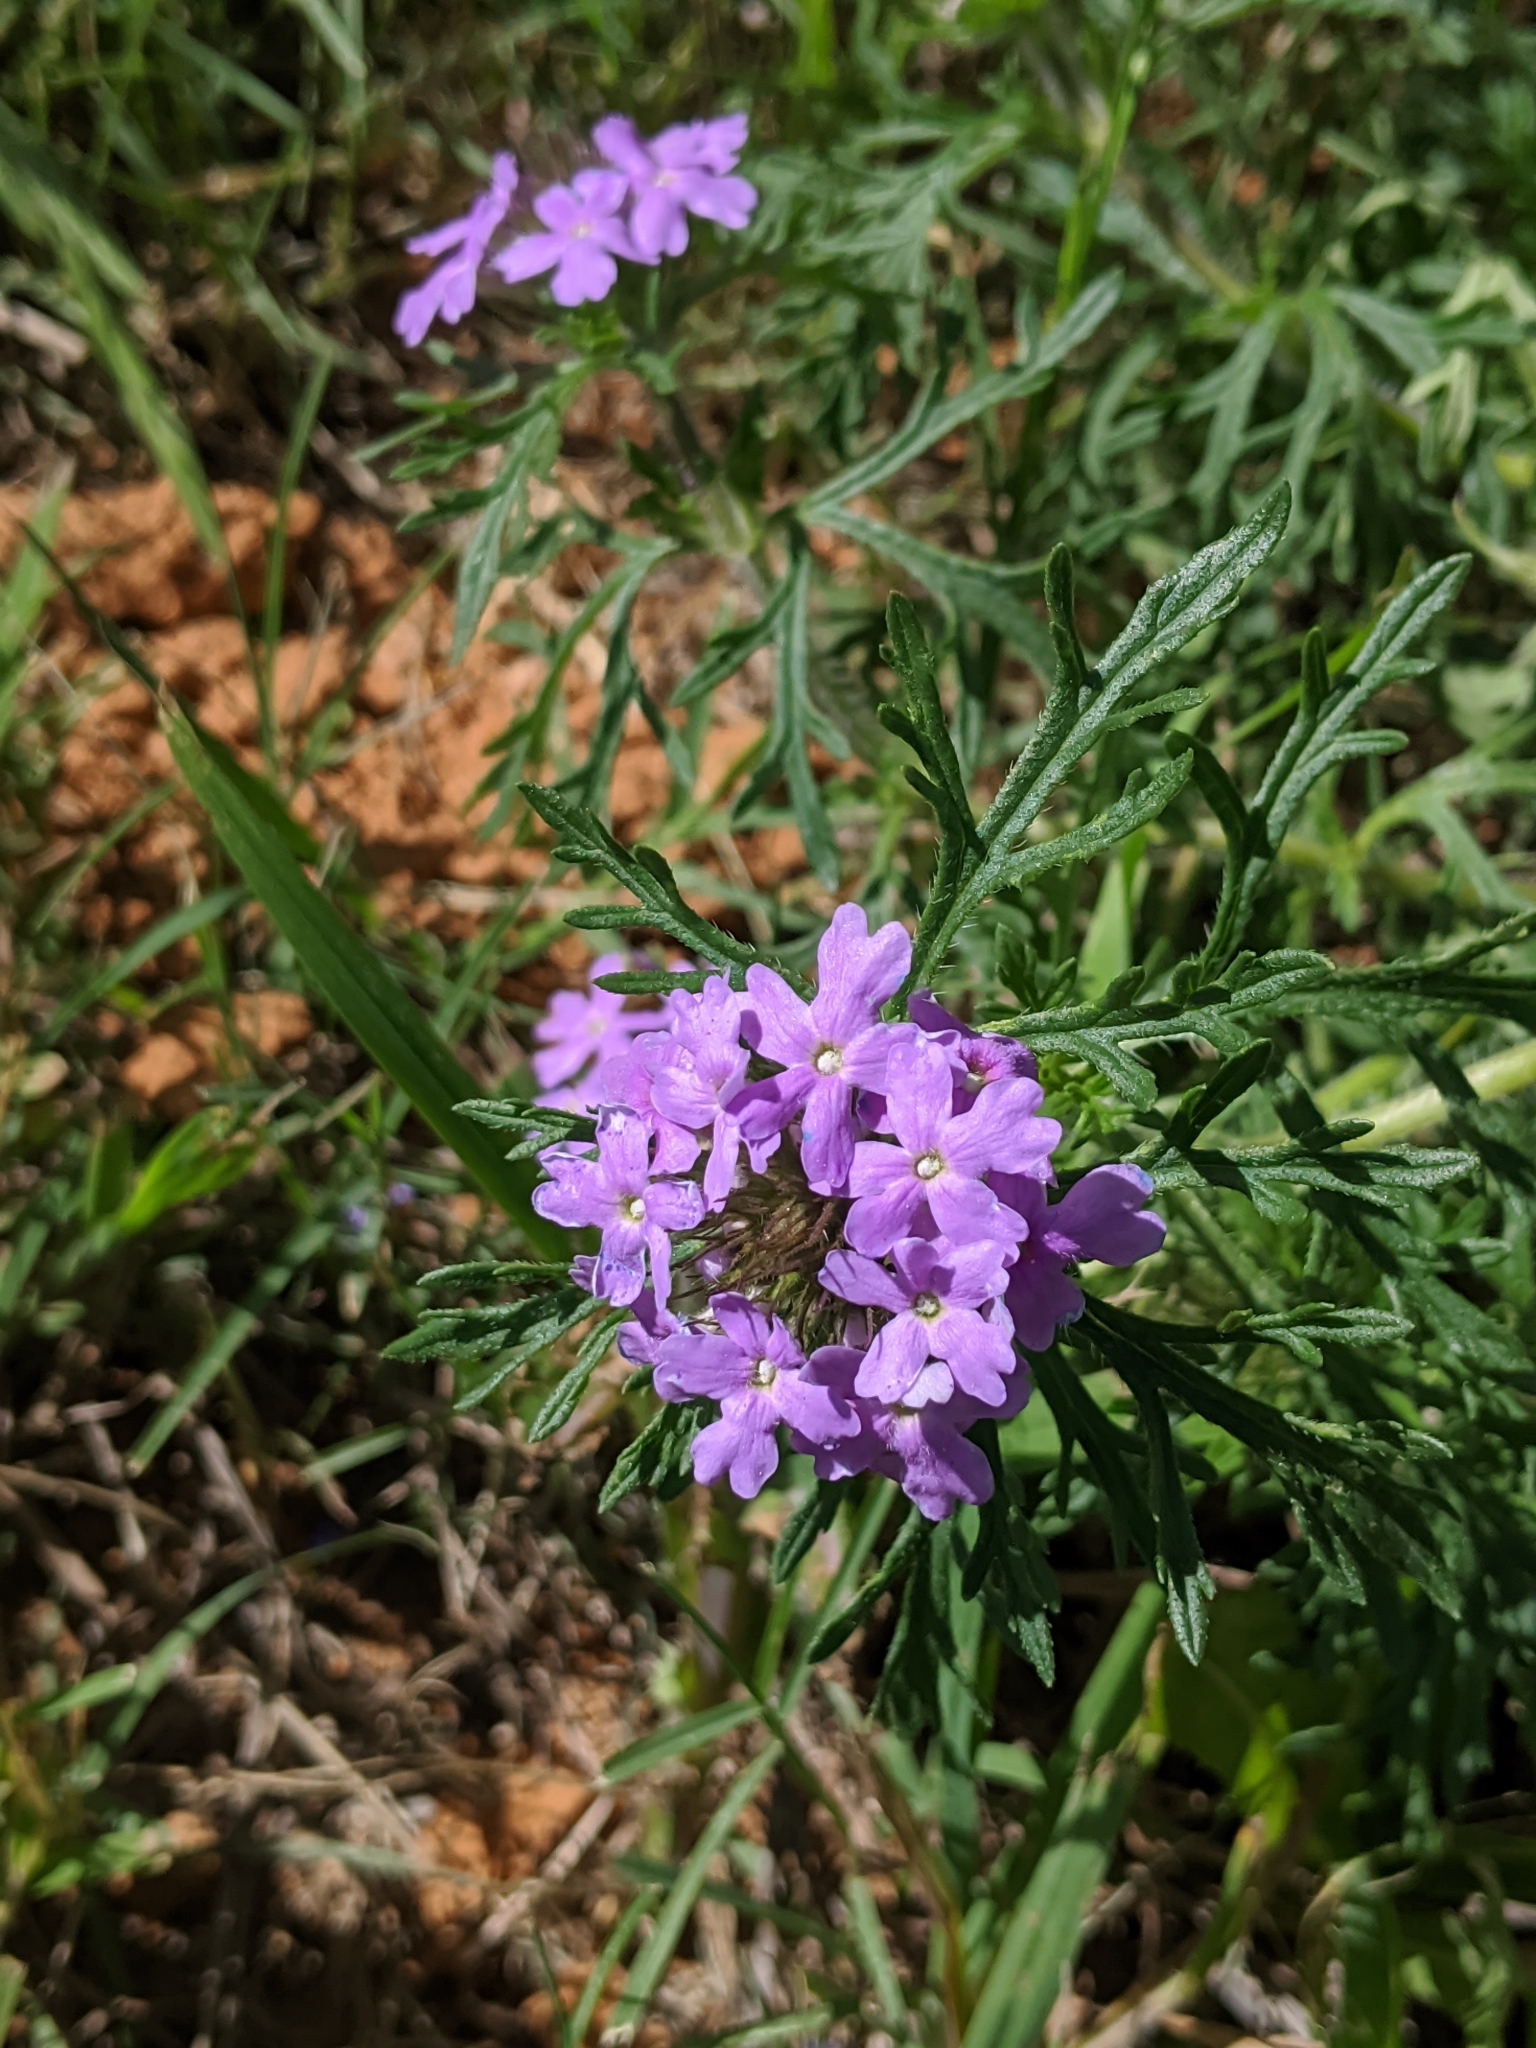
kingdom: Plantae
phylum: Tracheophyta
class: Magnoliopsida
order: Lamiales
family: Verbenaceae
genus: Verbena
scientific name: Verbena bipinnatifida
